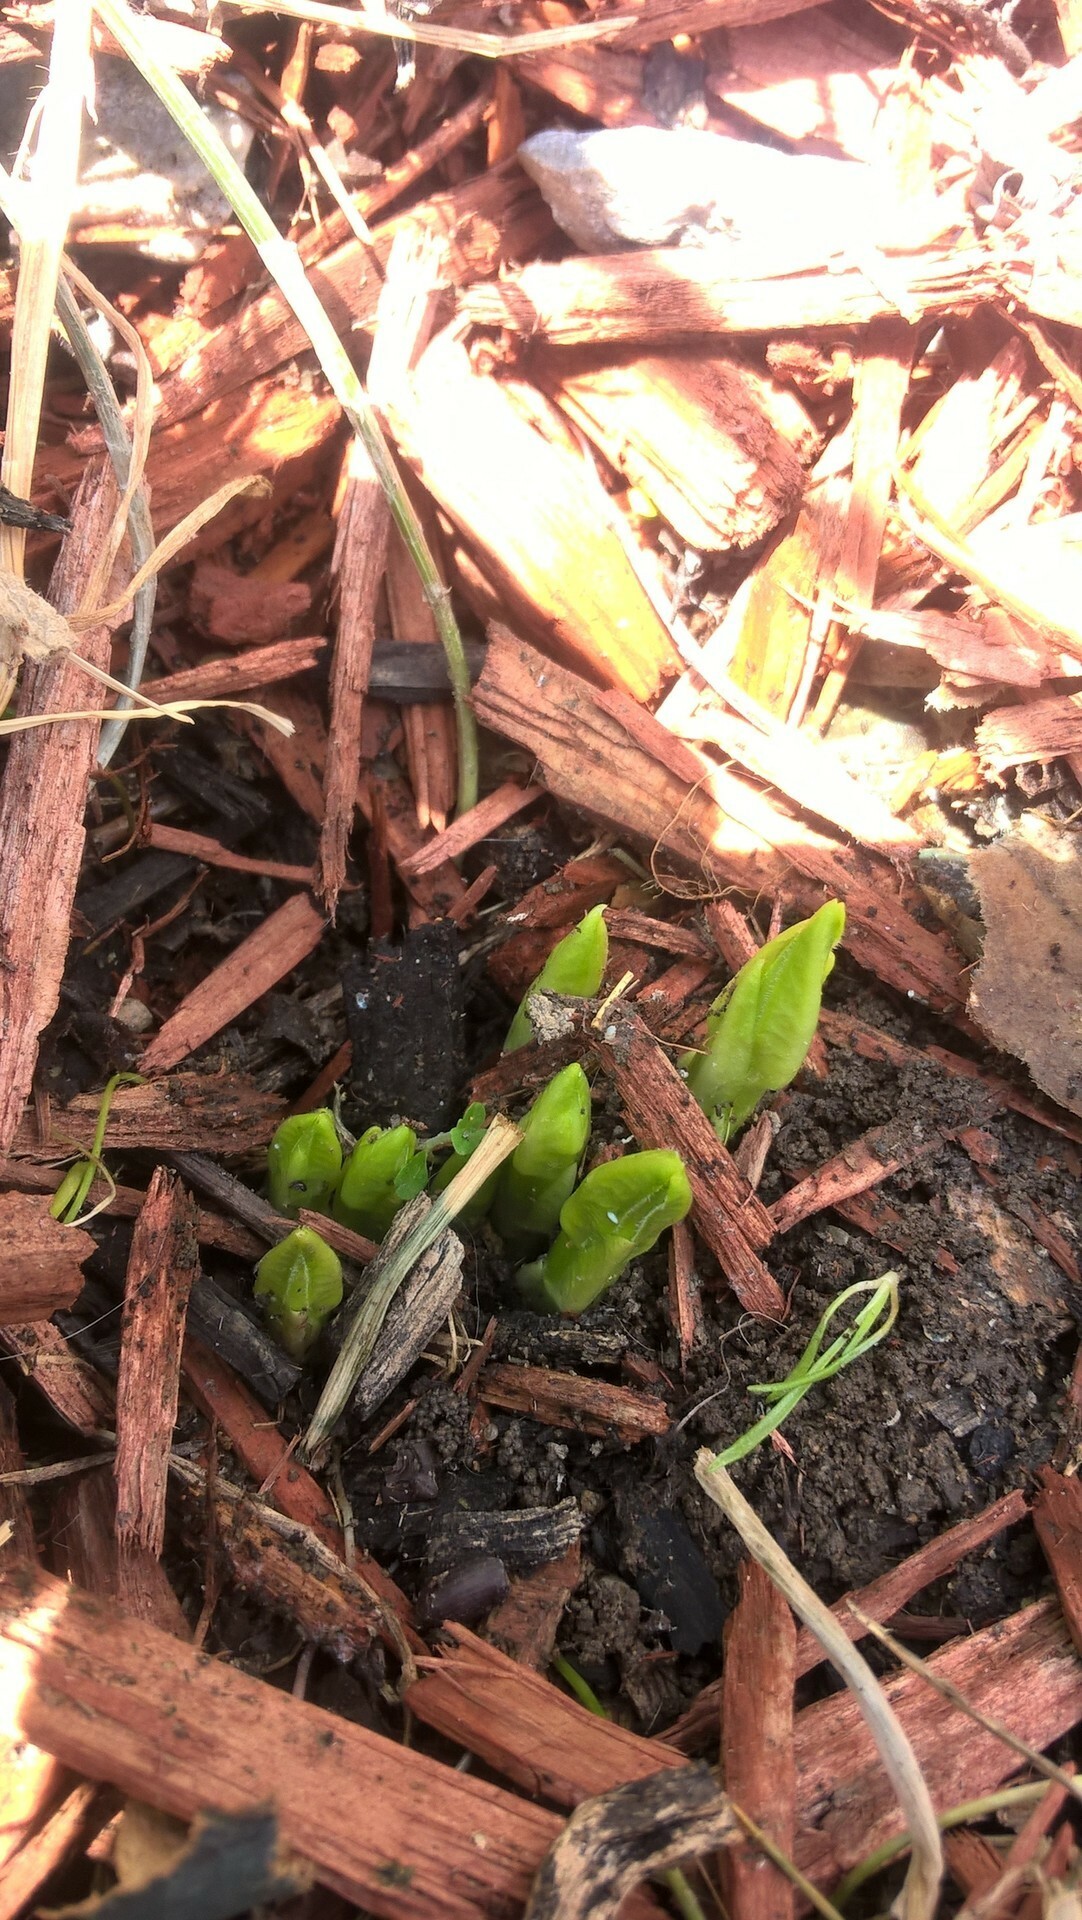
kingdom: Plantae
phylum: Tracheophyta
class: Magnoliopsida
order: Gentianales
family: Apocynaceae
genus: Asclepias
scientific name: Asclepias syriaca
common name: Common milkweed
